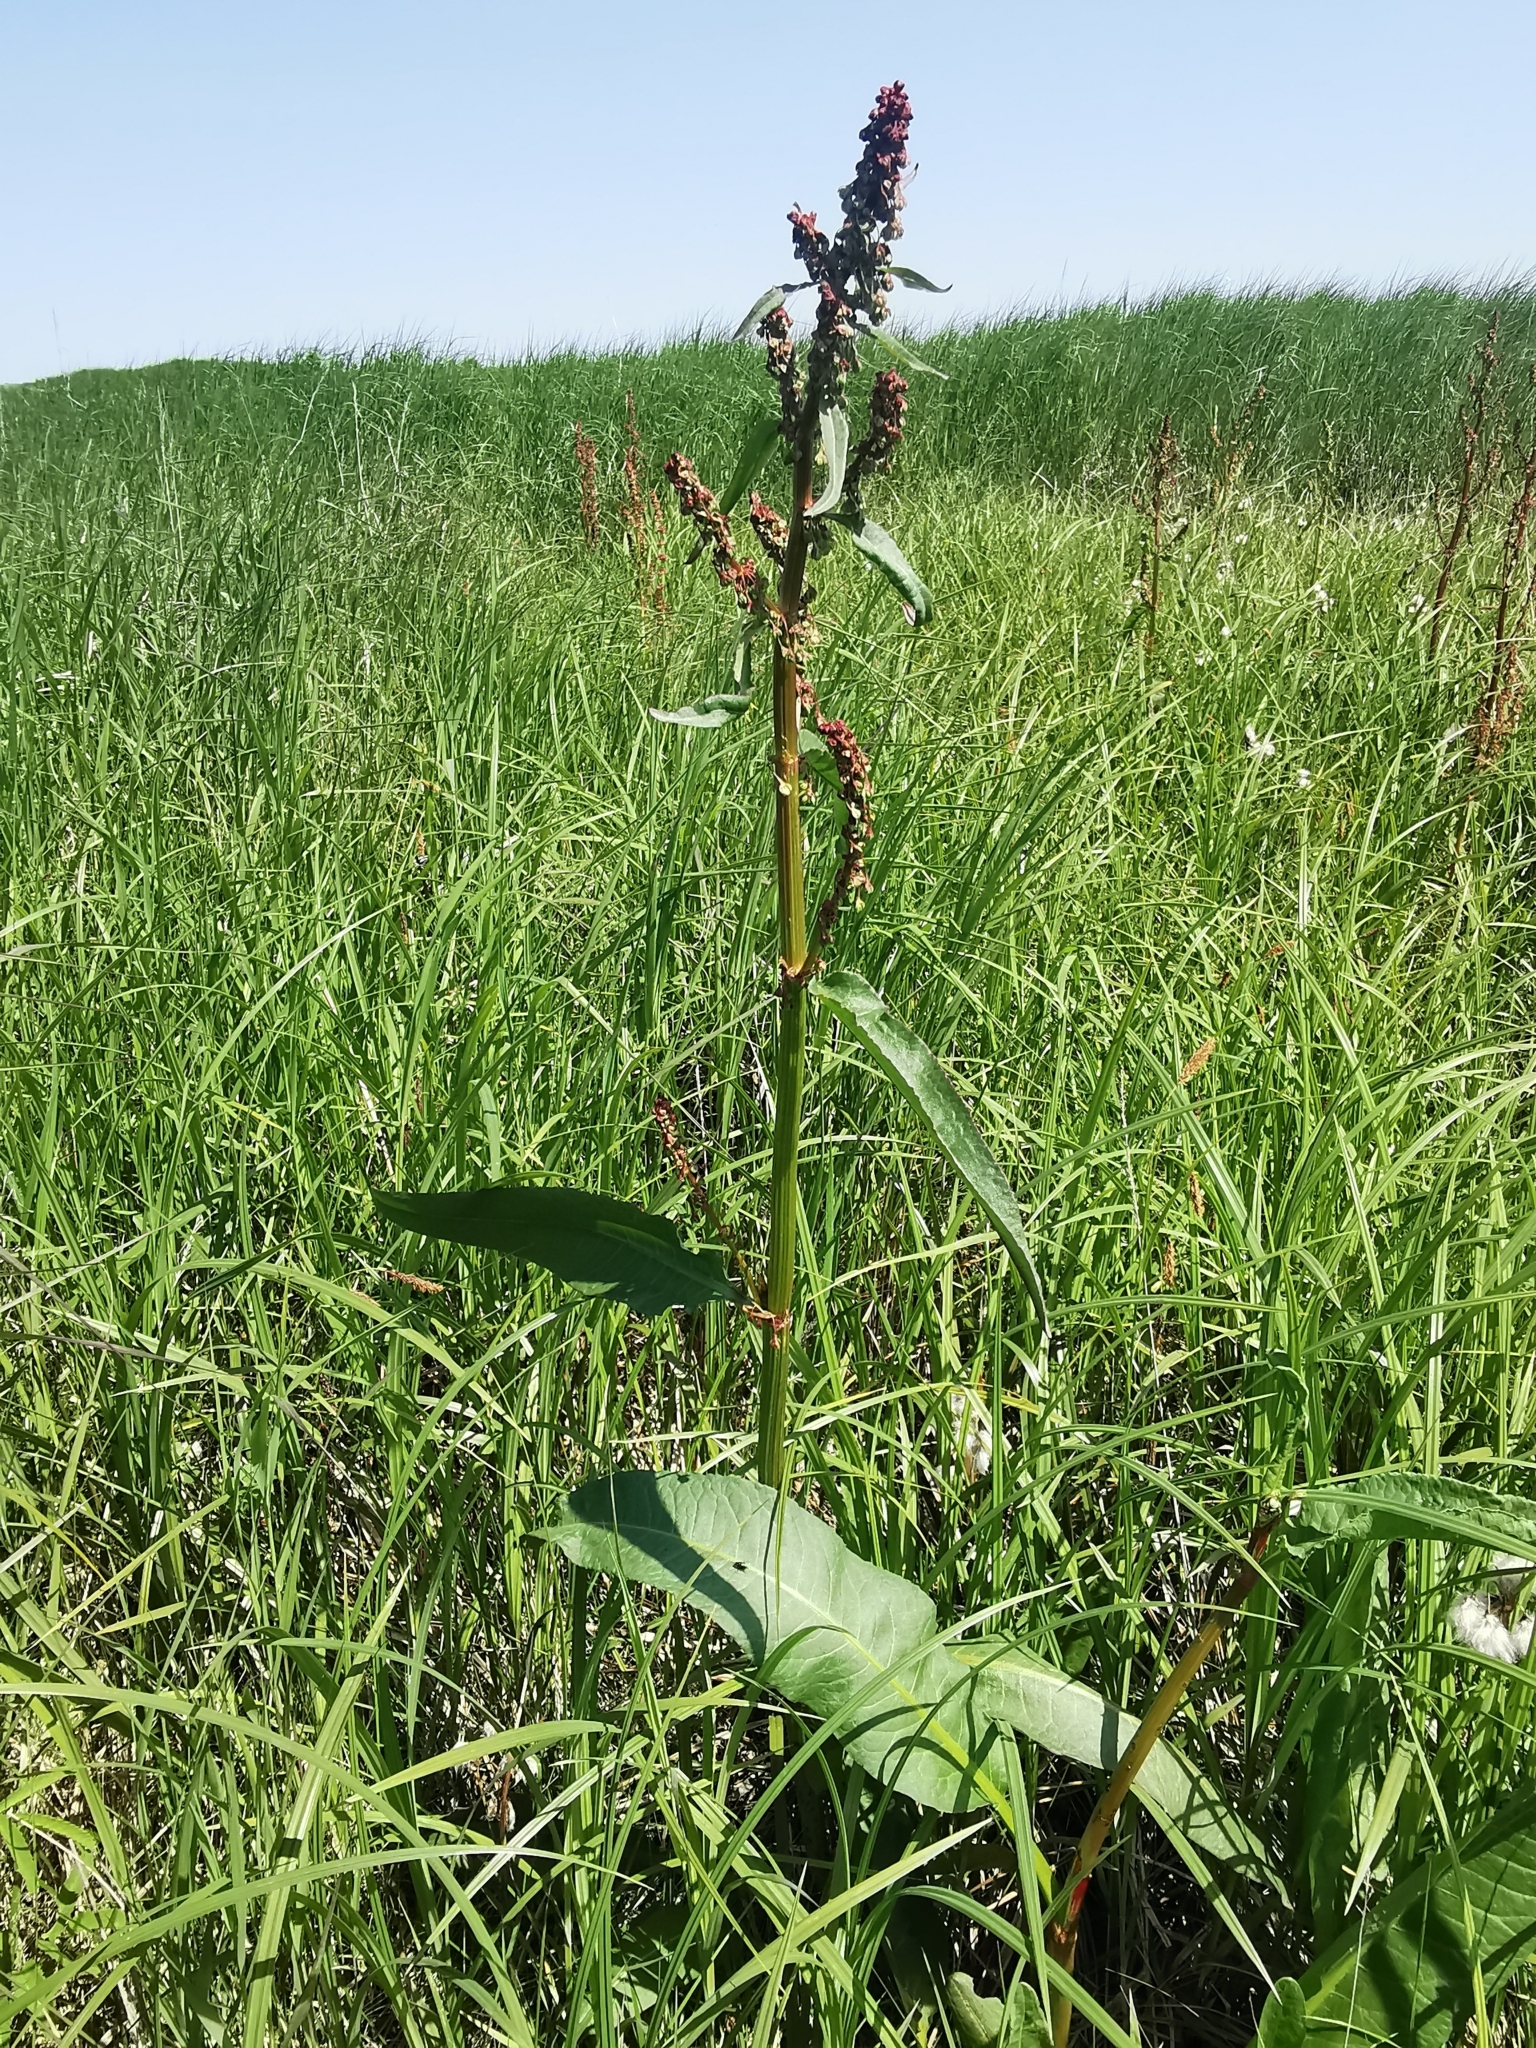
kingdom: Plantae
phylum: Tracheophyta
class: Magnoliopsida
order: Caryophyllales
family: Polygonaceae
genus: Rumex
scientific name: Rumex aquaticus
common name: Scottish dock
